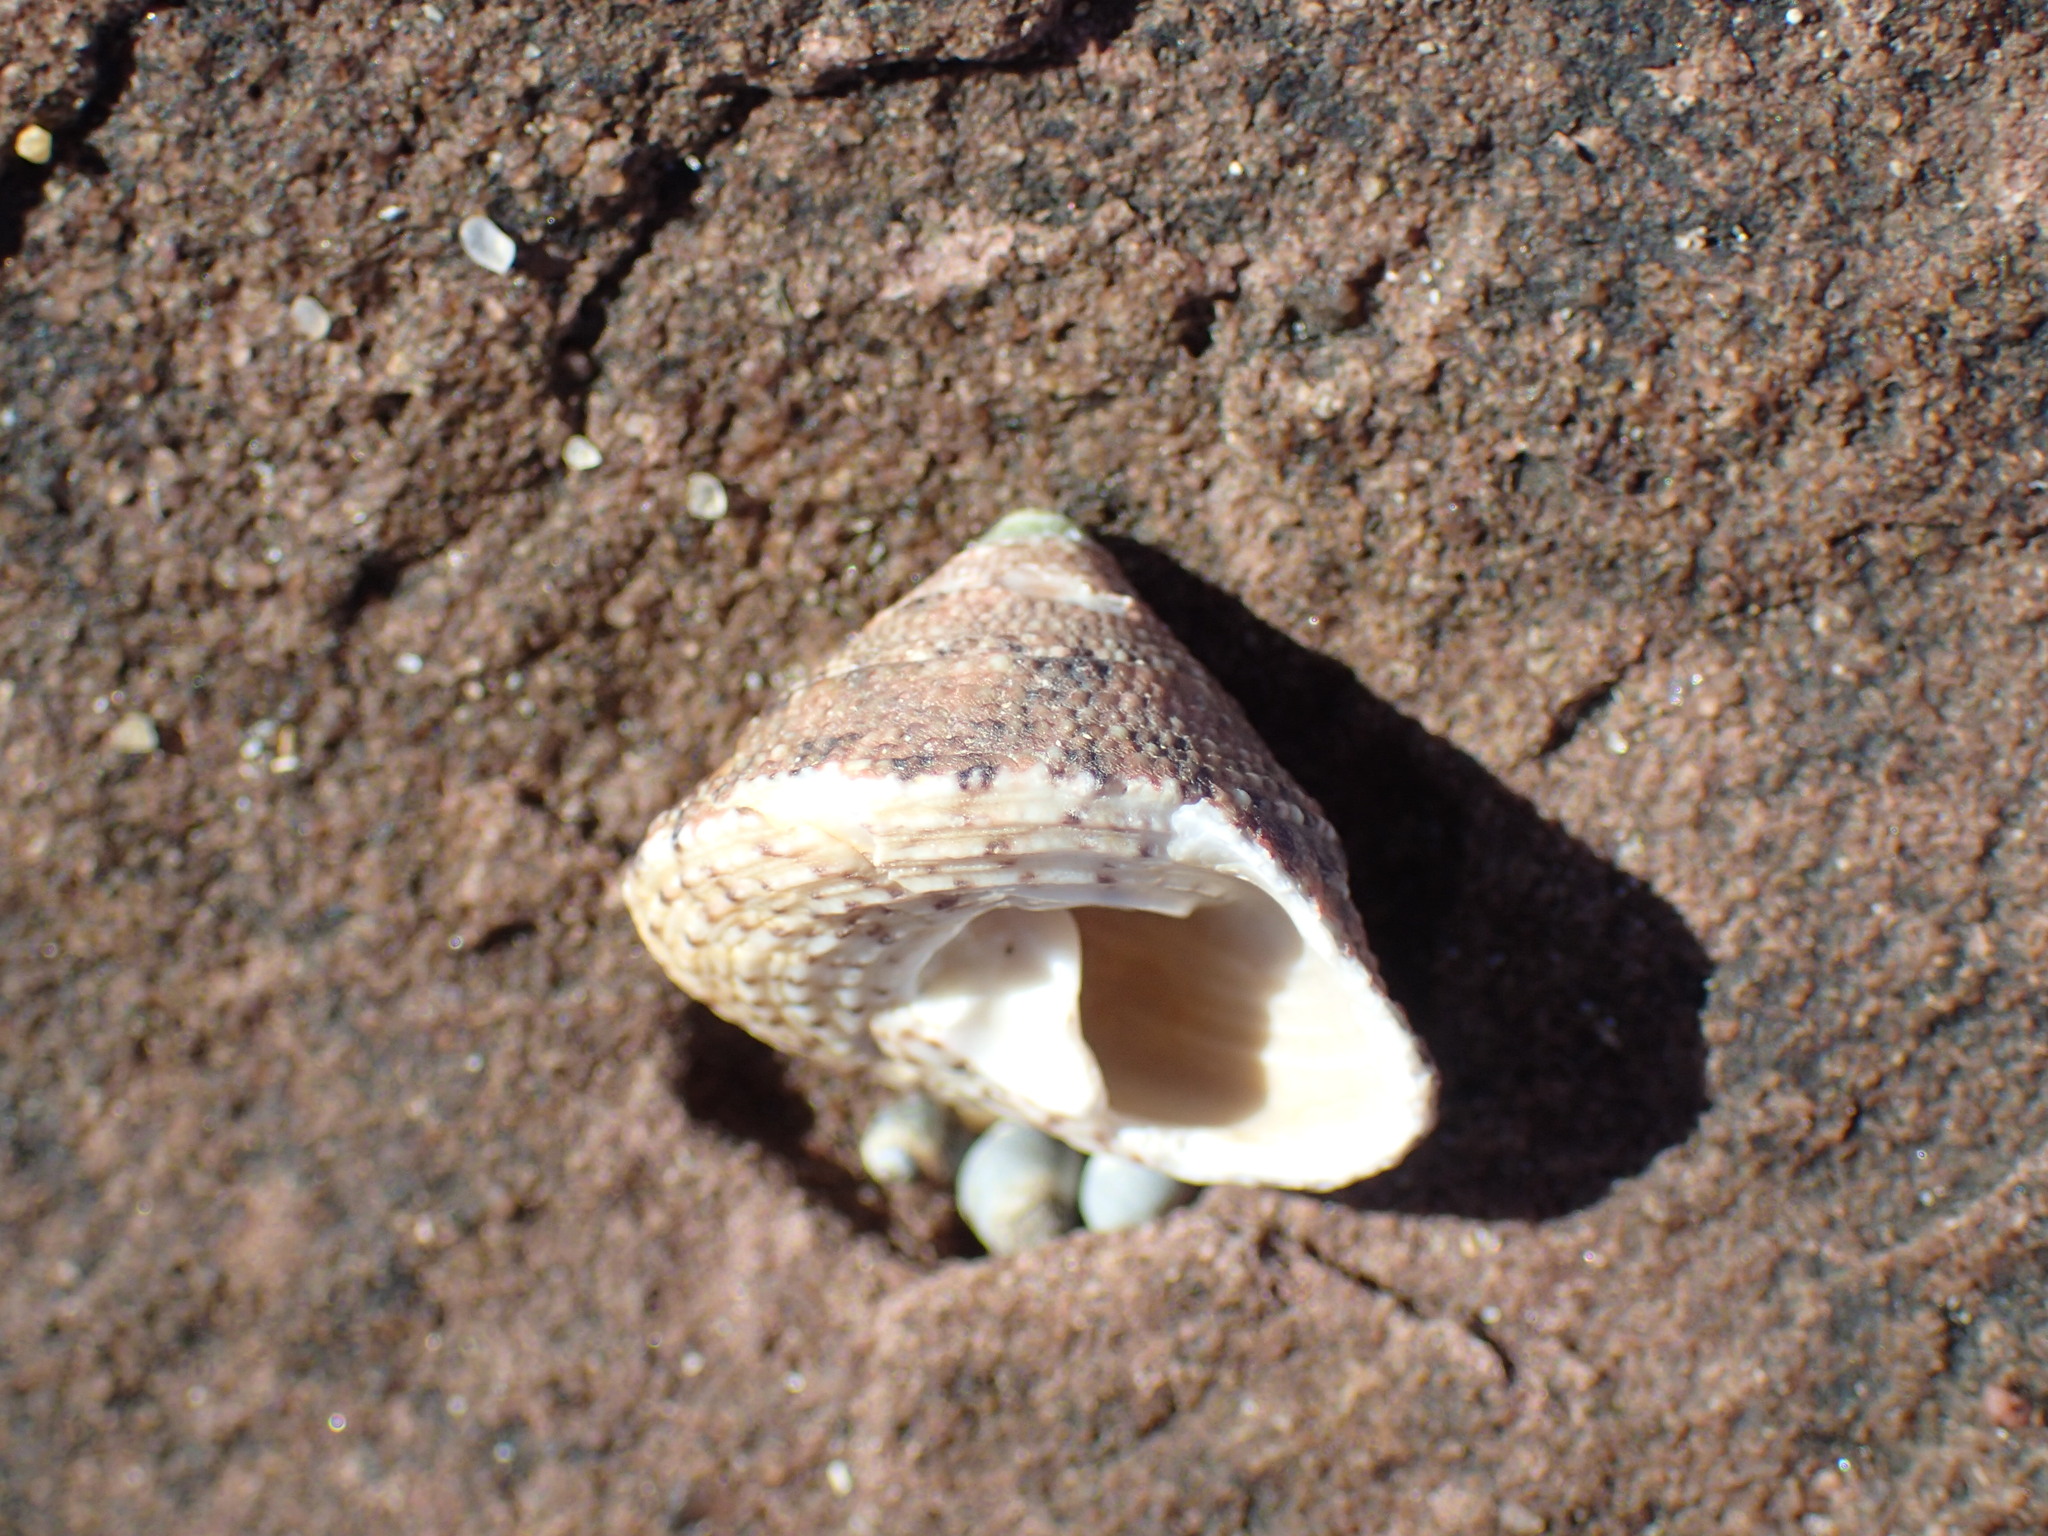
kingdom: Animalia
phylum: Mollusca
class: Gastropoda
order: Trochida
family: Trochidae
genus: Trochus
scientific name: Trochus nigropunctatus
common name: Black-spotted topshell
